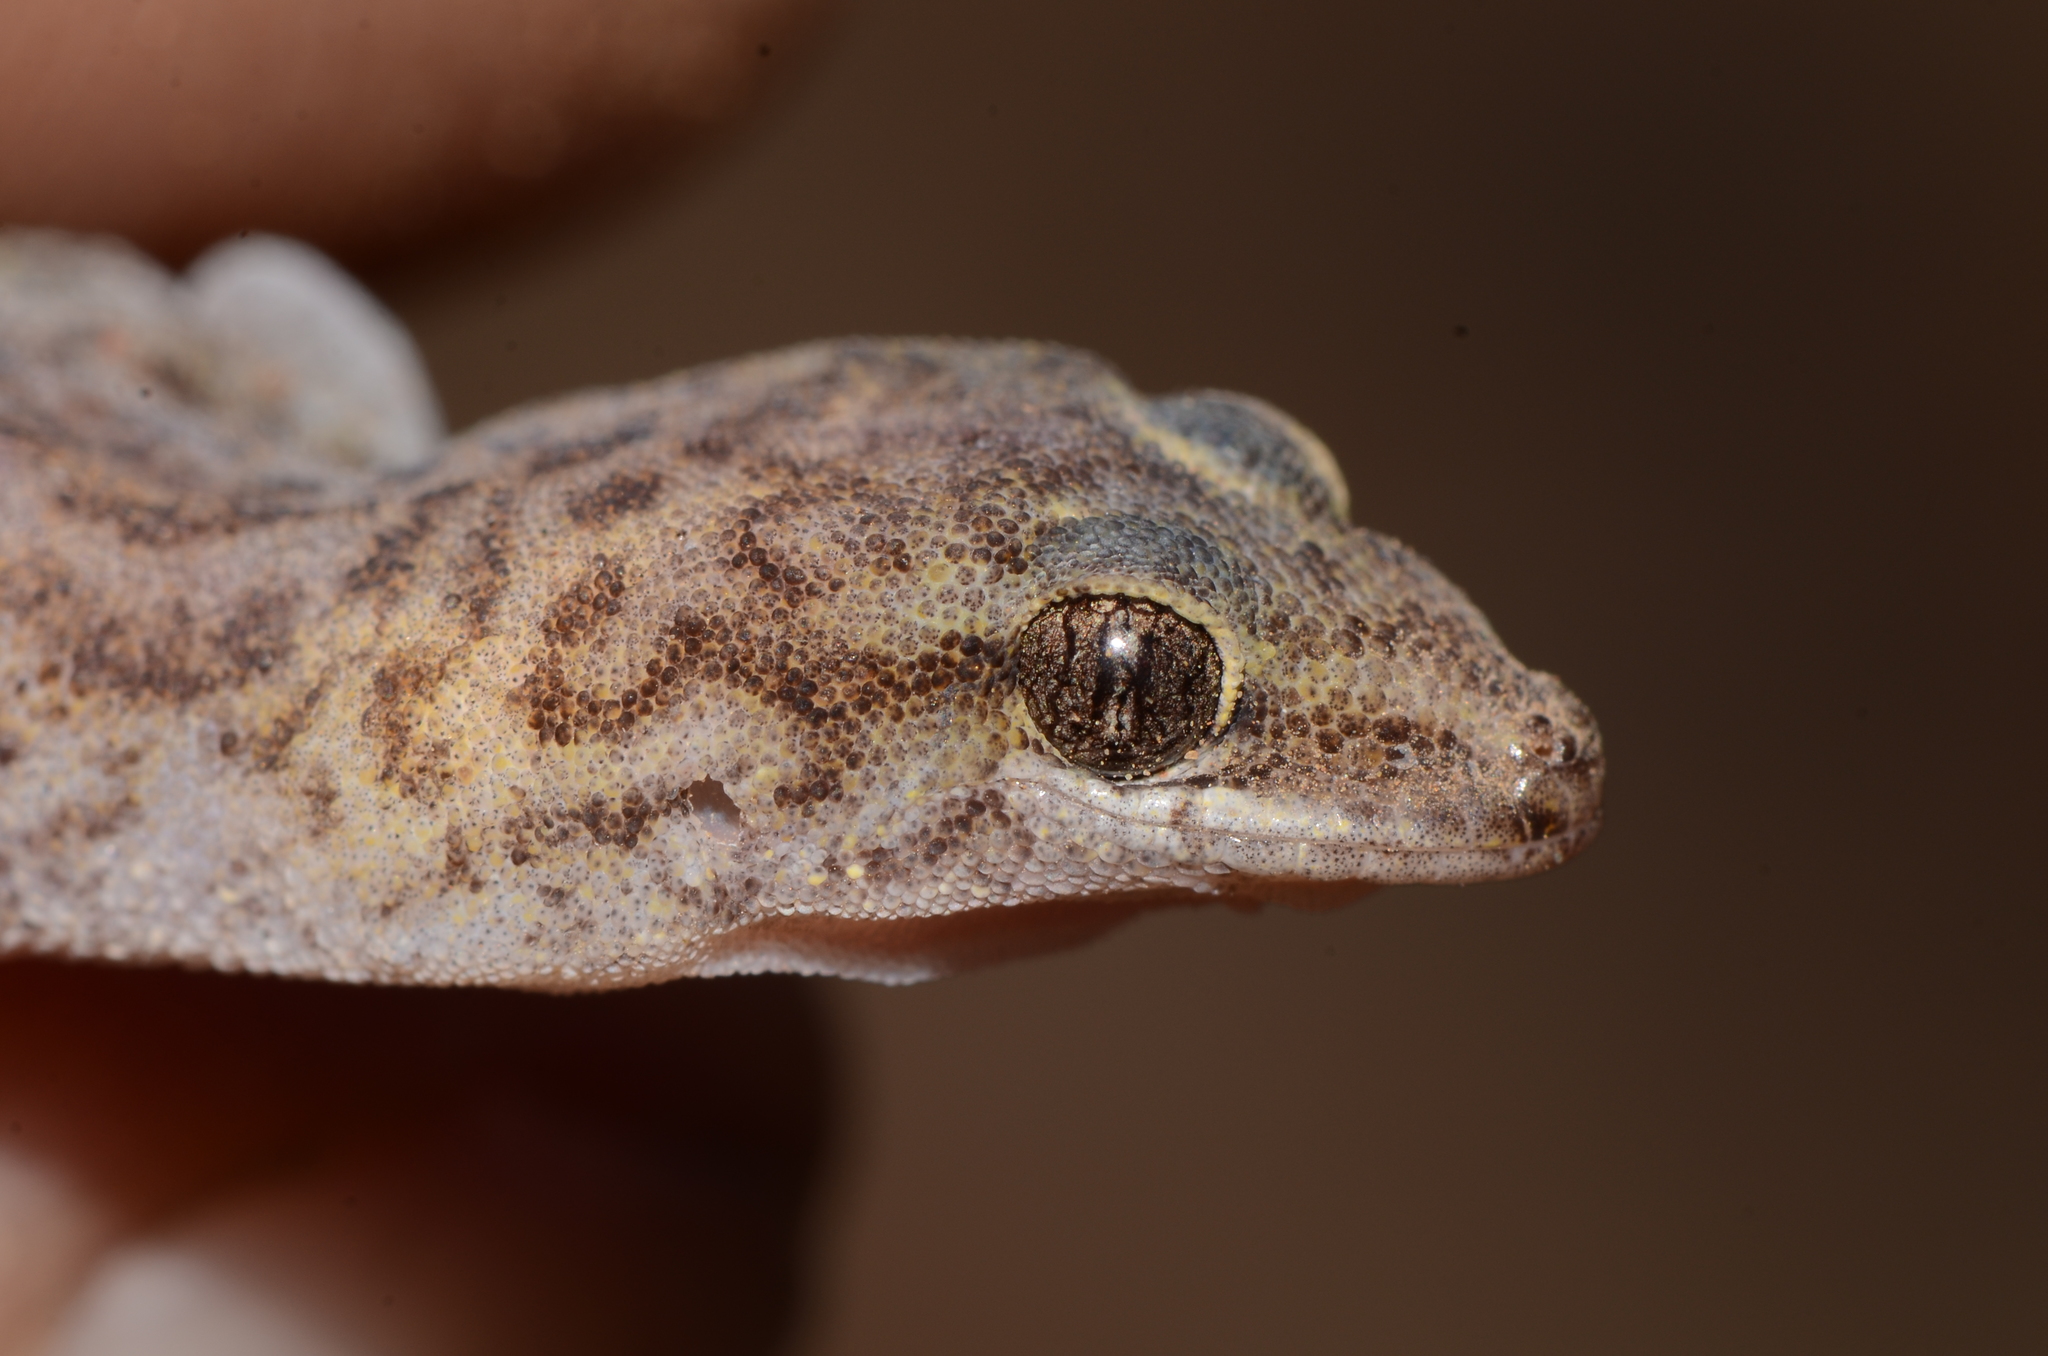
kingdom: Animalia
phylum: Chordata
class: Squamata
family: Gekkonidae
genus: Pachydactylus
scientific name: Pachydactylus purcelli
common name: Purcell's gecko
